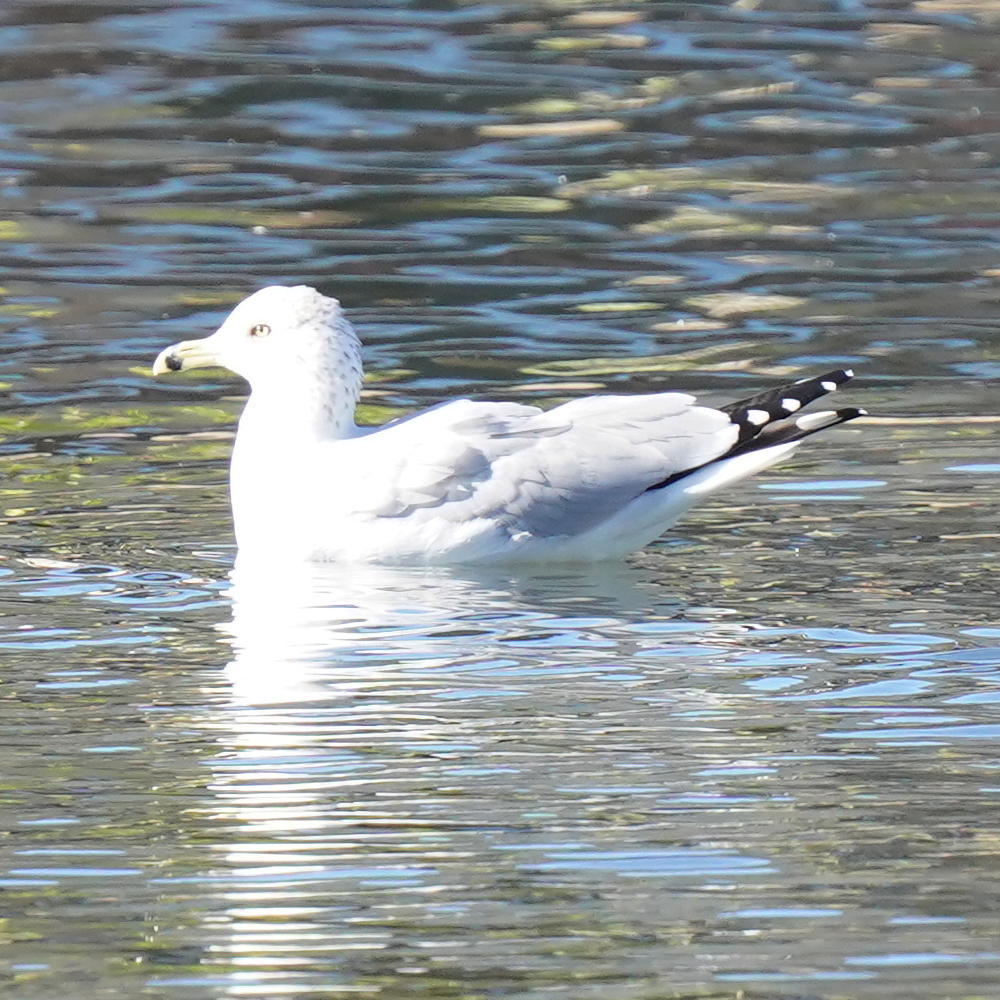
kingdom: Animalia
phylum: Chordata
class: Aves
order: Charadriiformes
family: Laridae
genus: Larus
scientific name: Larus delawarensis
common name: Ring-billed gull
